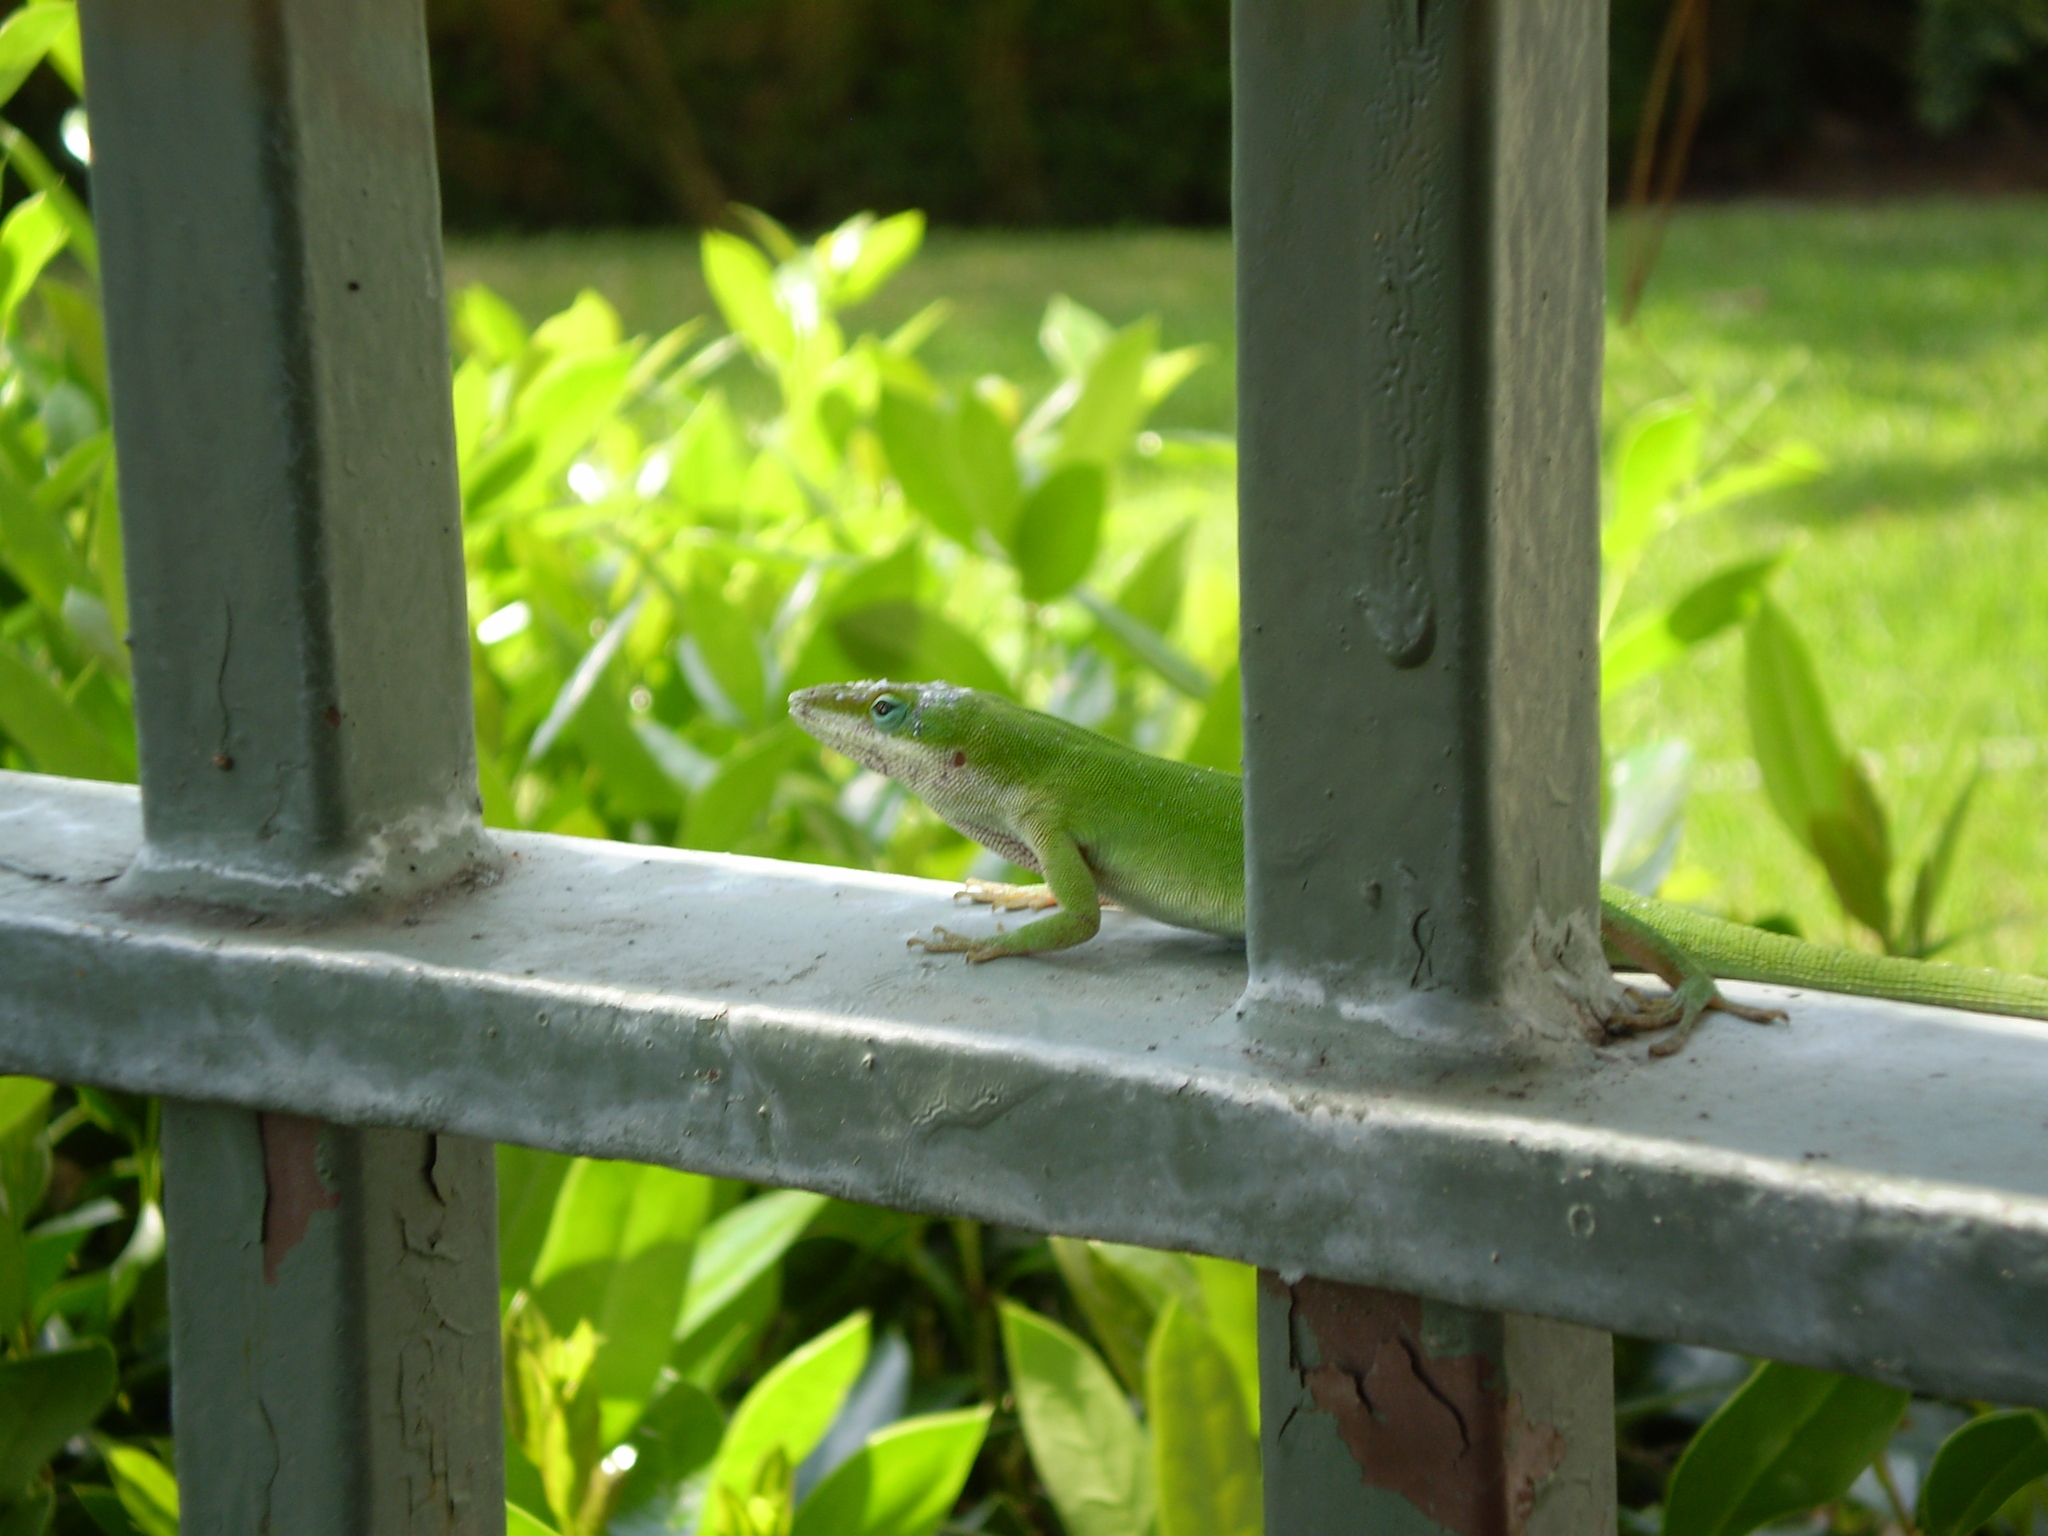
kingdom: Animalia
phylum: Chordata
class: Squamata
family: Dactyloidae
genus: Anolis
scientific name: Anolis carolinensis
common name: Green anole
